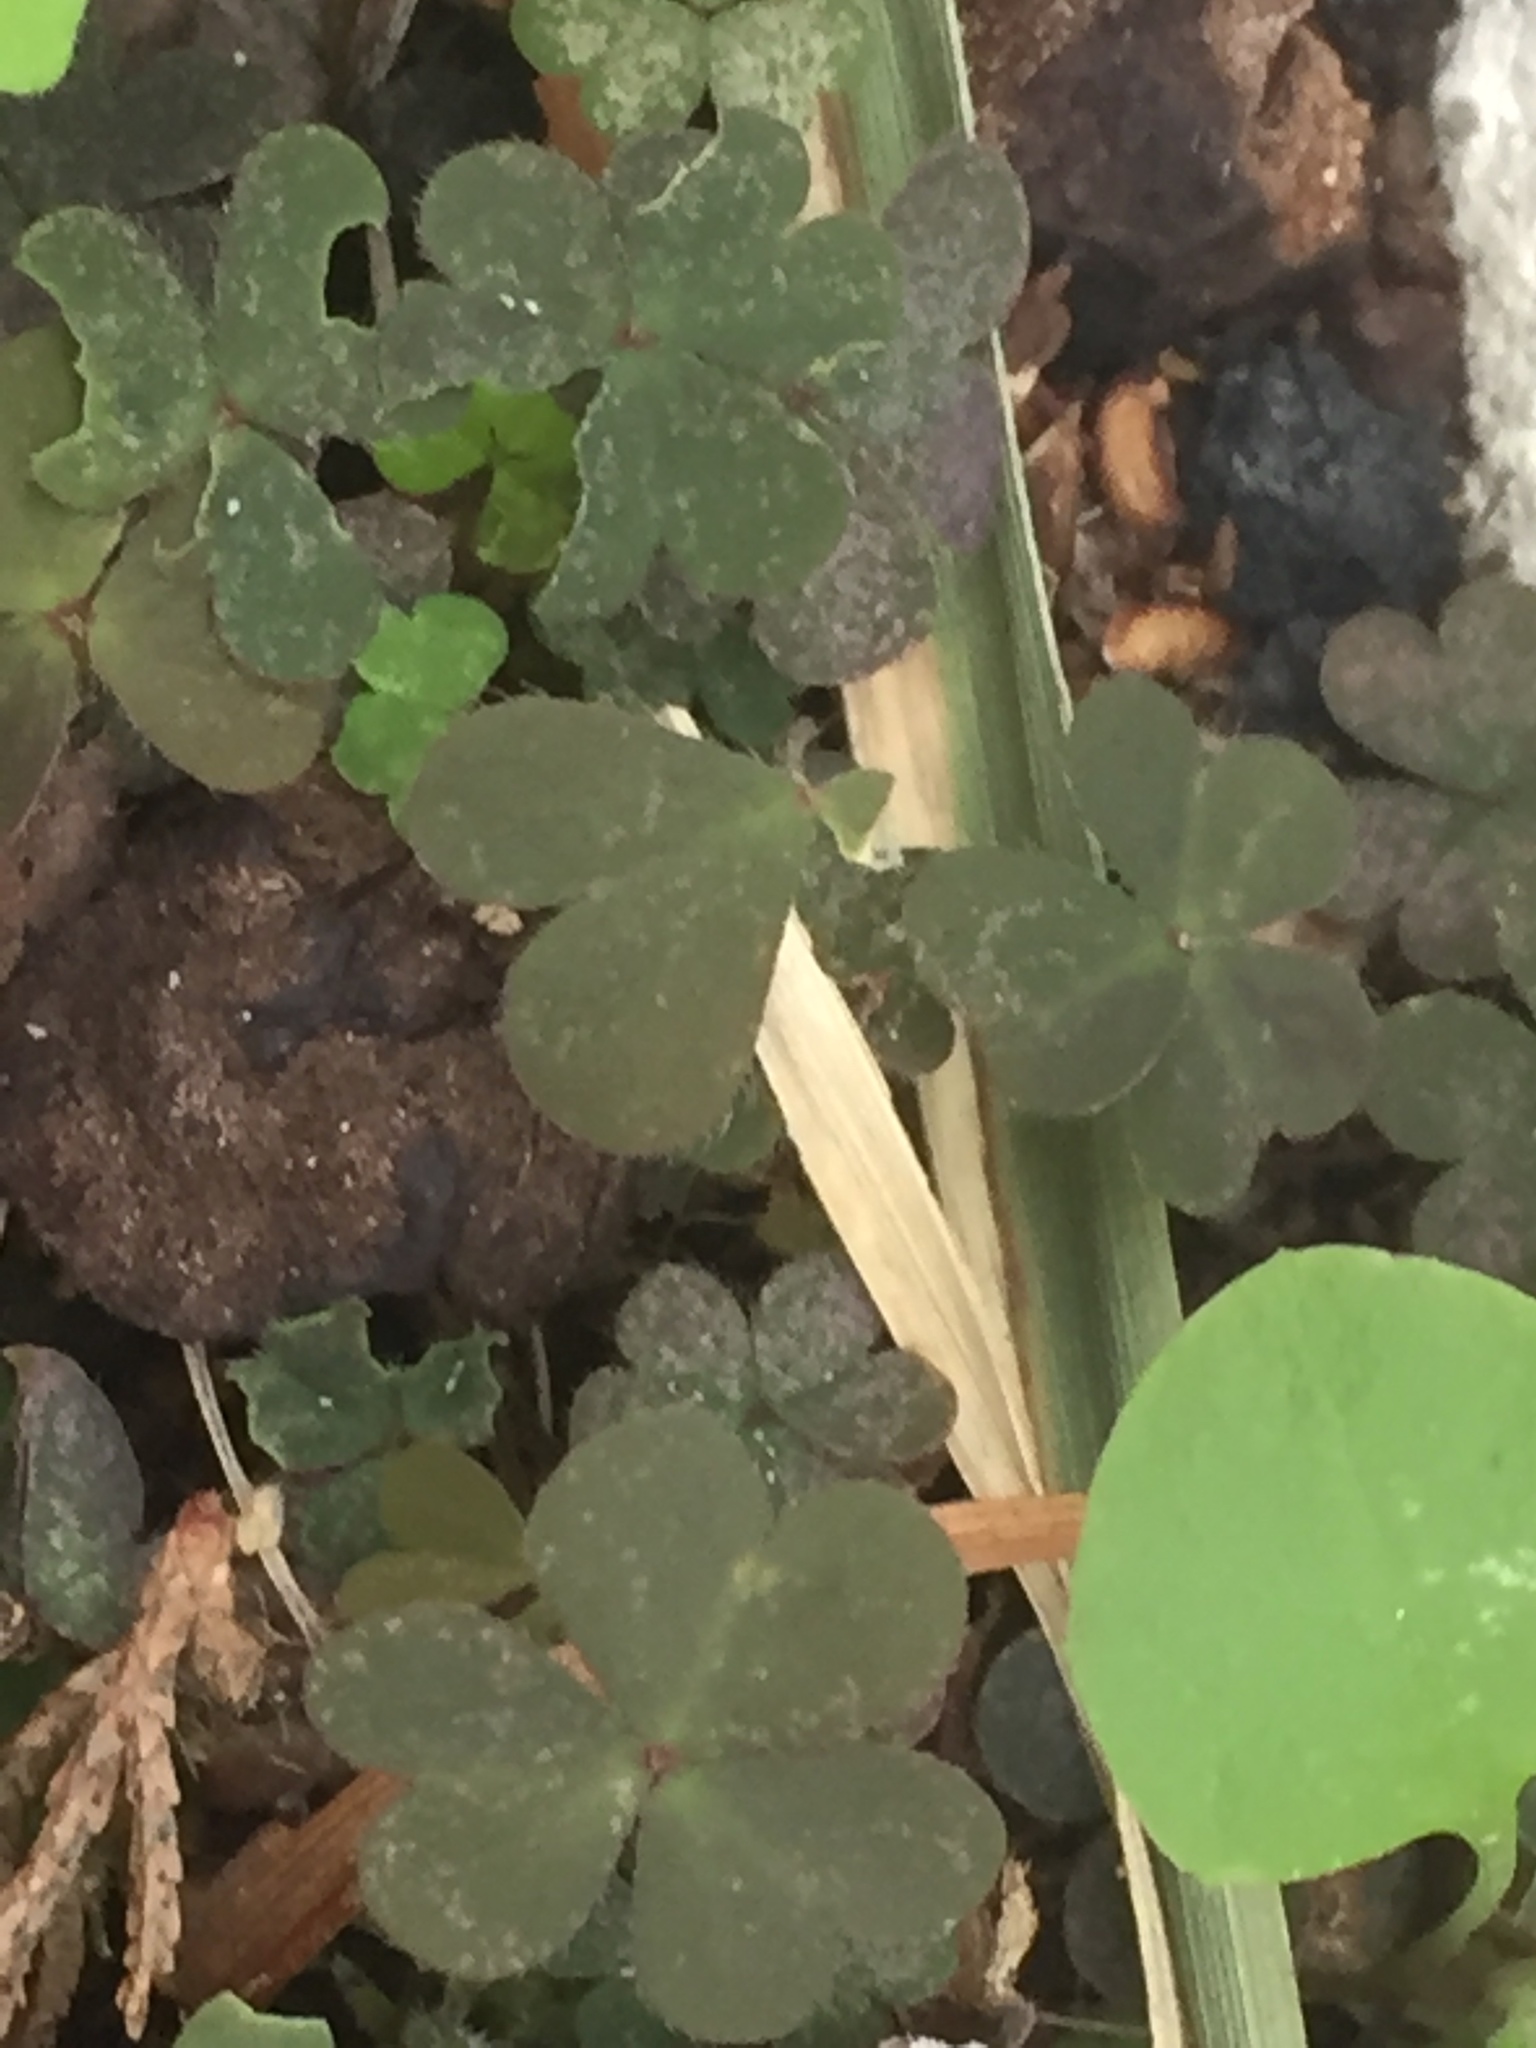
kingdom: Plantae
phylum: Tracheophyta
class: Magnoliopsida
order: Oxalidales
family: Oxalidaceae
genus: Oxalis
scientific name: Oxalis corniculata
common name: Procumbent yellow-sorrel
